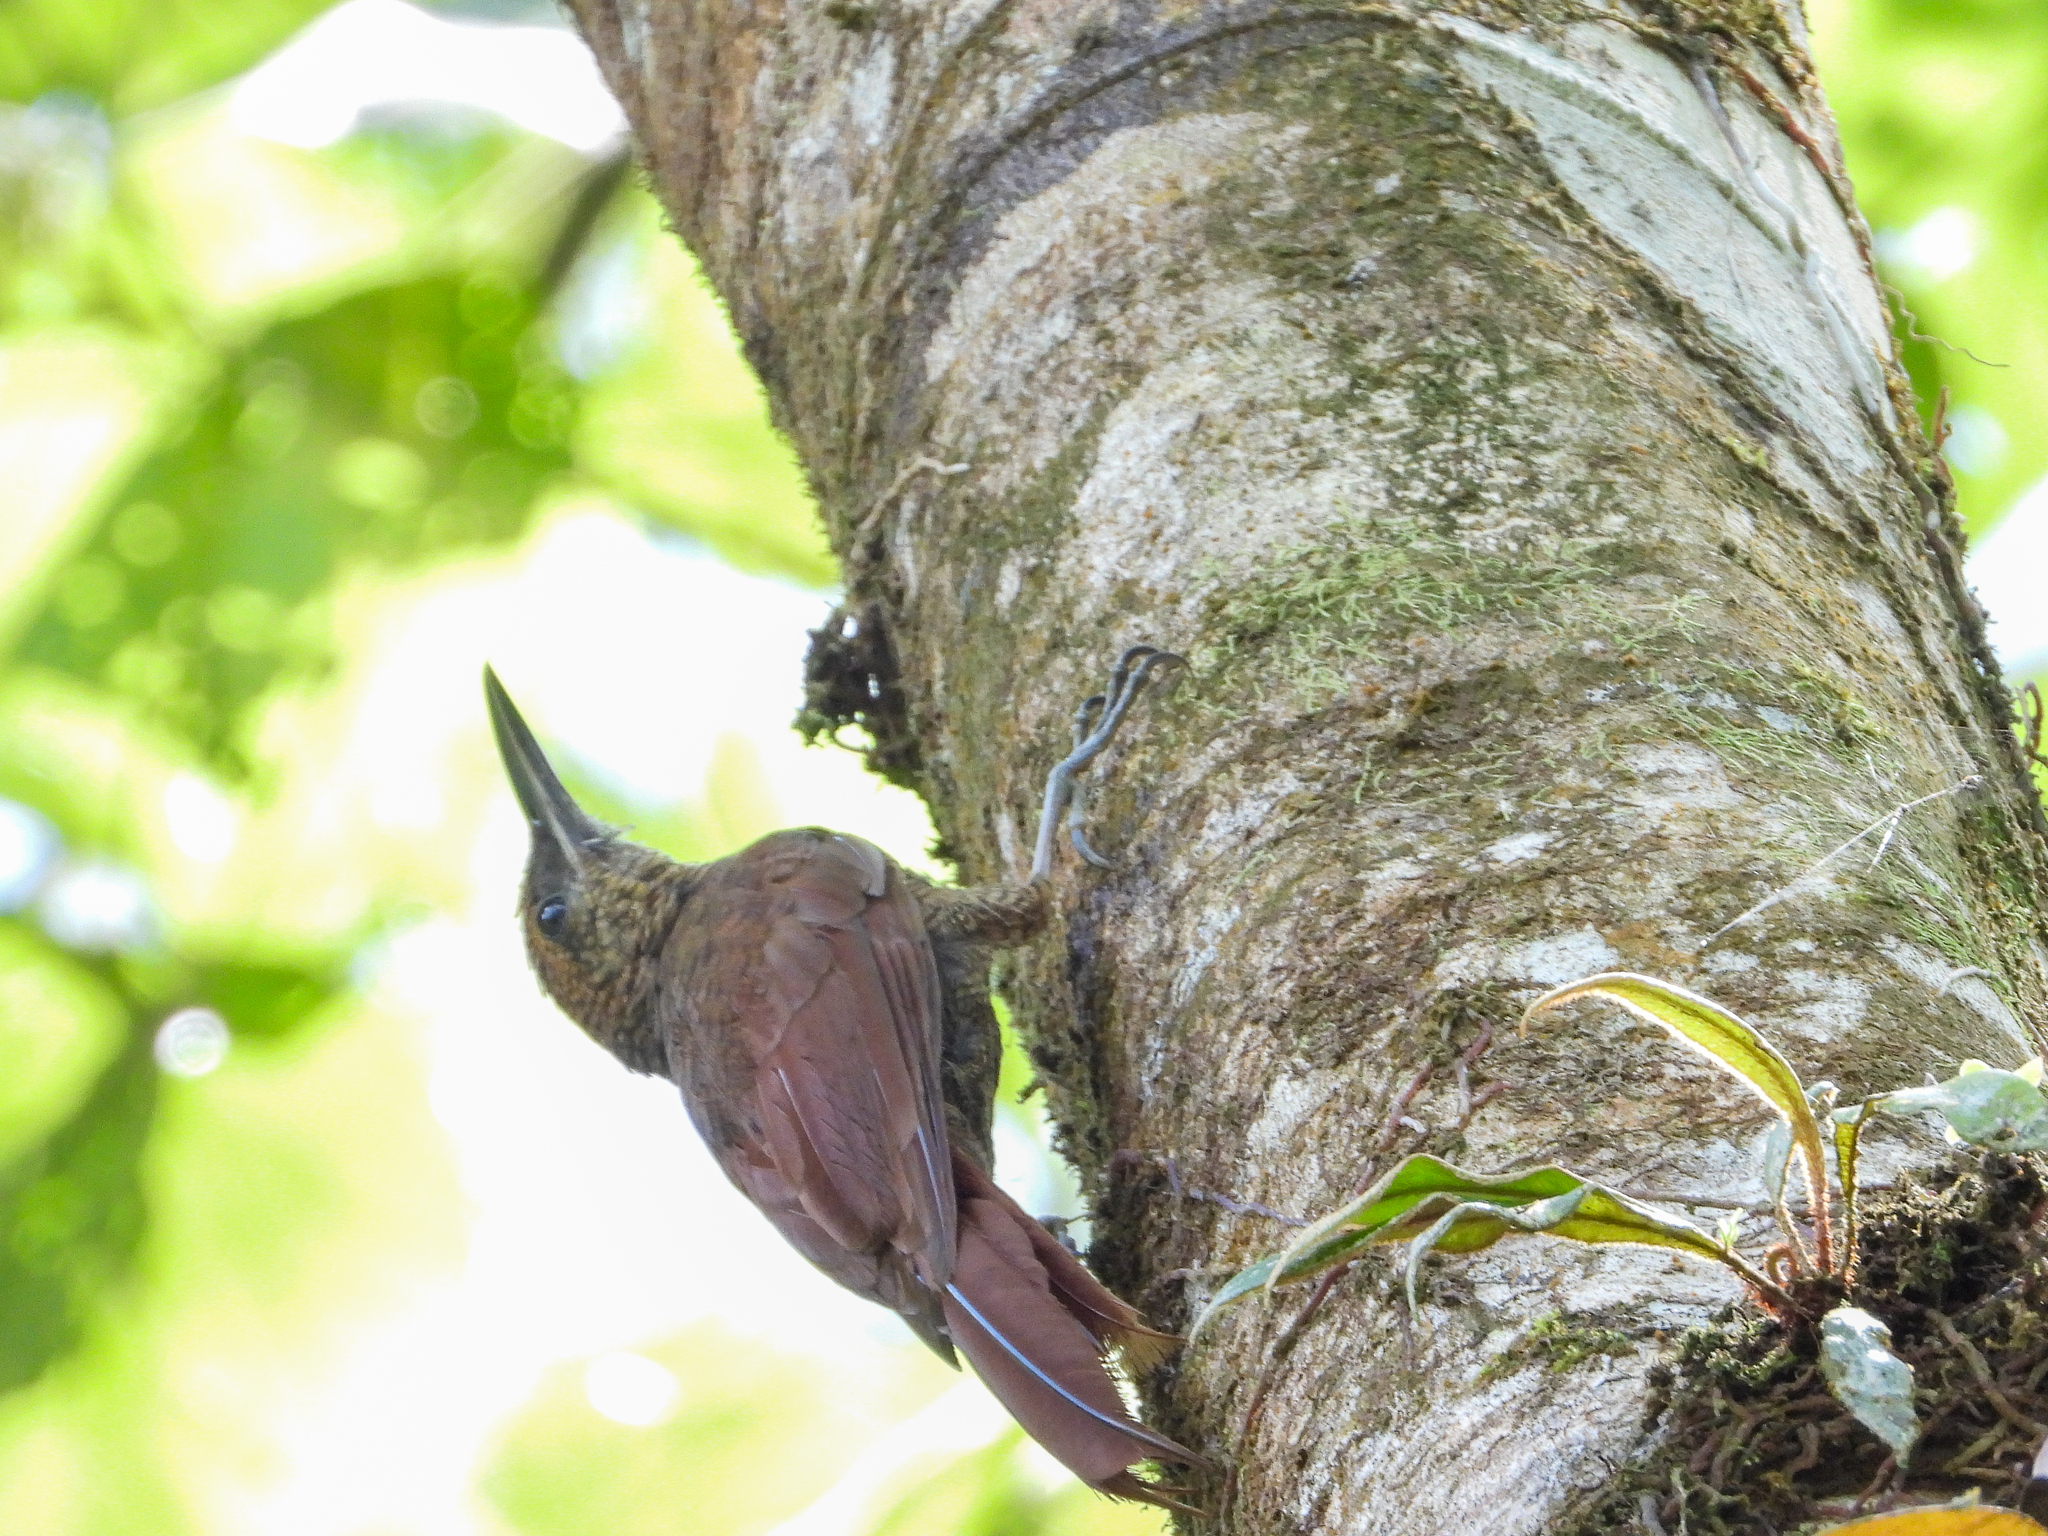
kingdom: Animalia
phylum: Chordata
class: Aves
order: Passeriformes
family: Furnariidae
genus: Dendrocolaptes
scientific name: Dendrocolaptes sanctithomae
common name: Northern barred-woodcreeper
